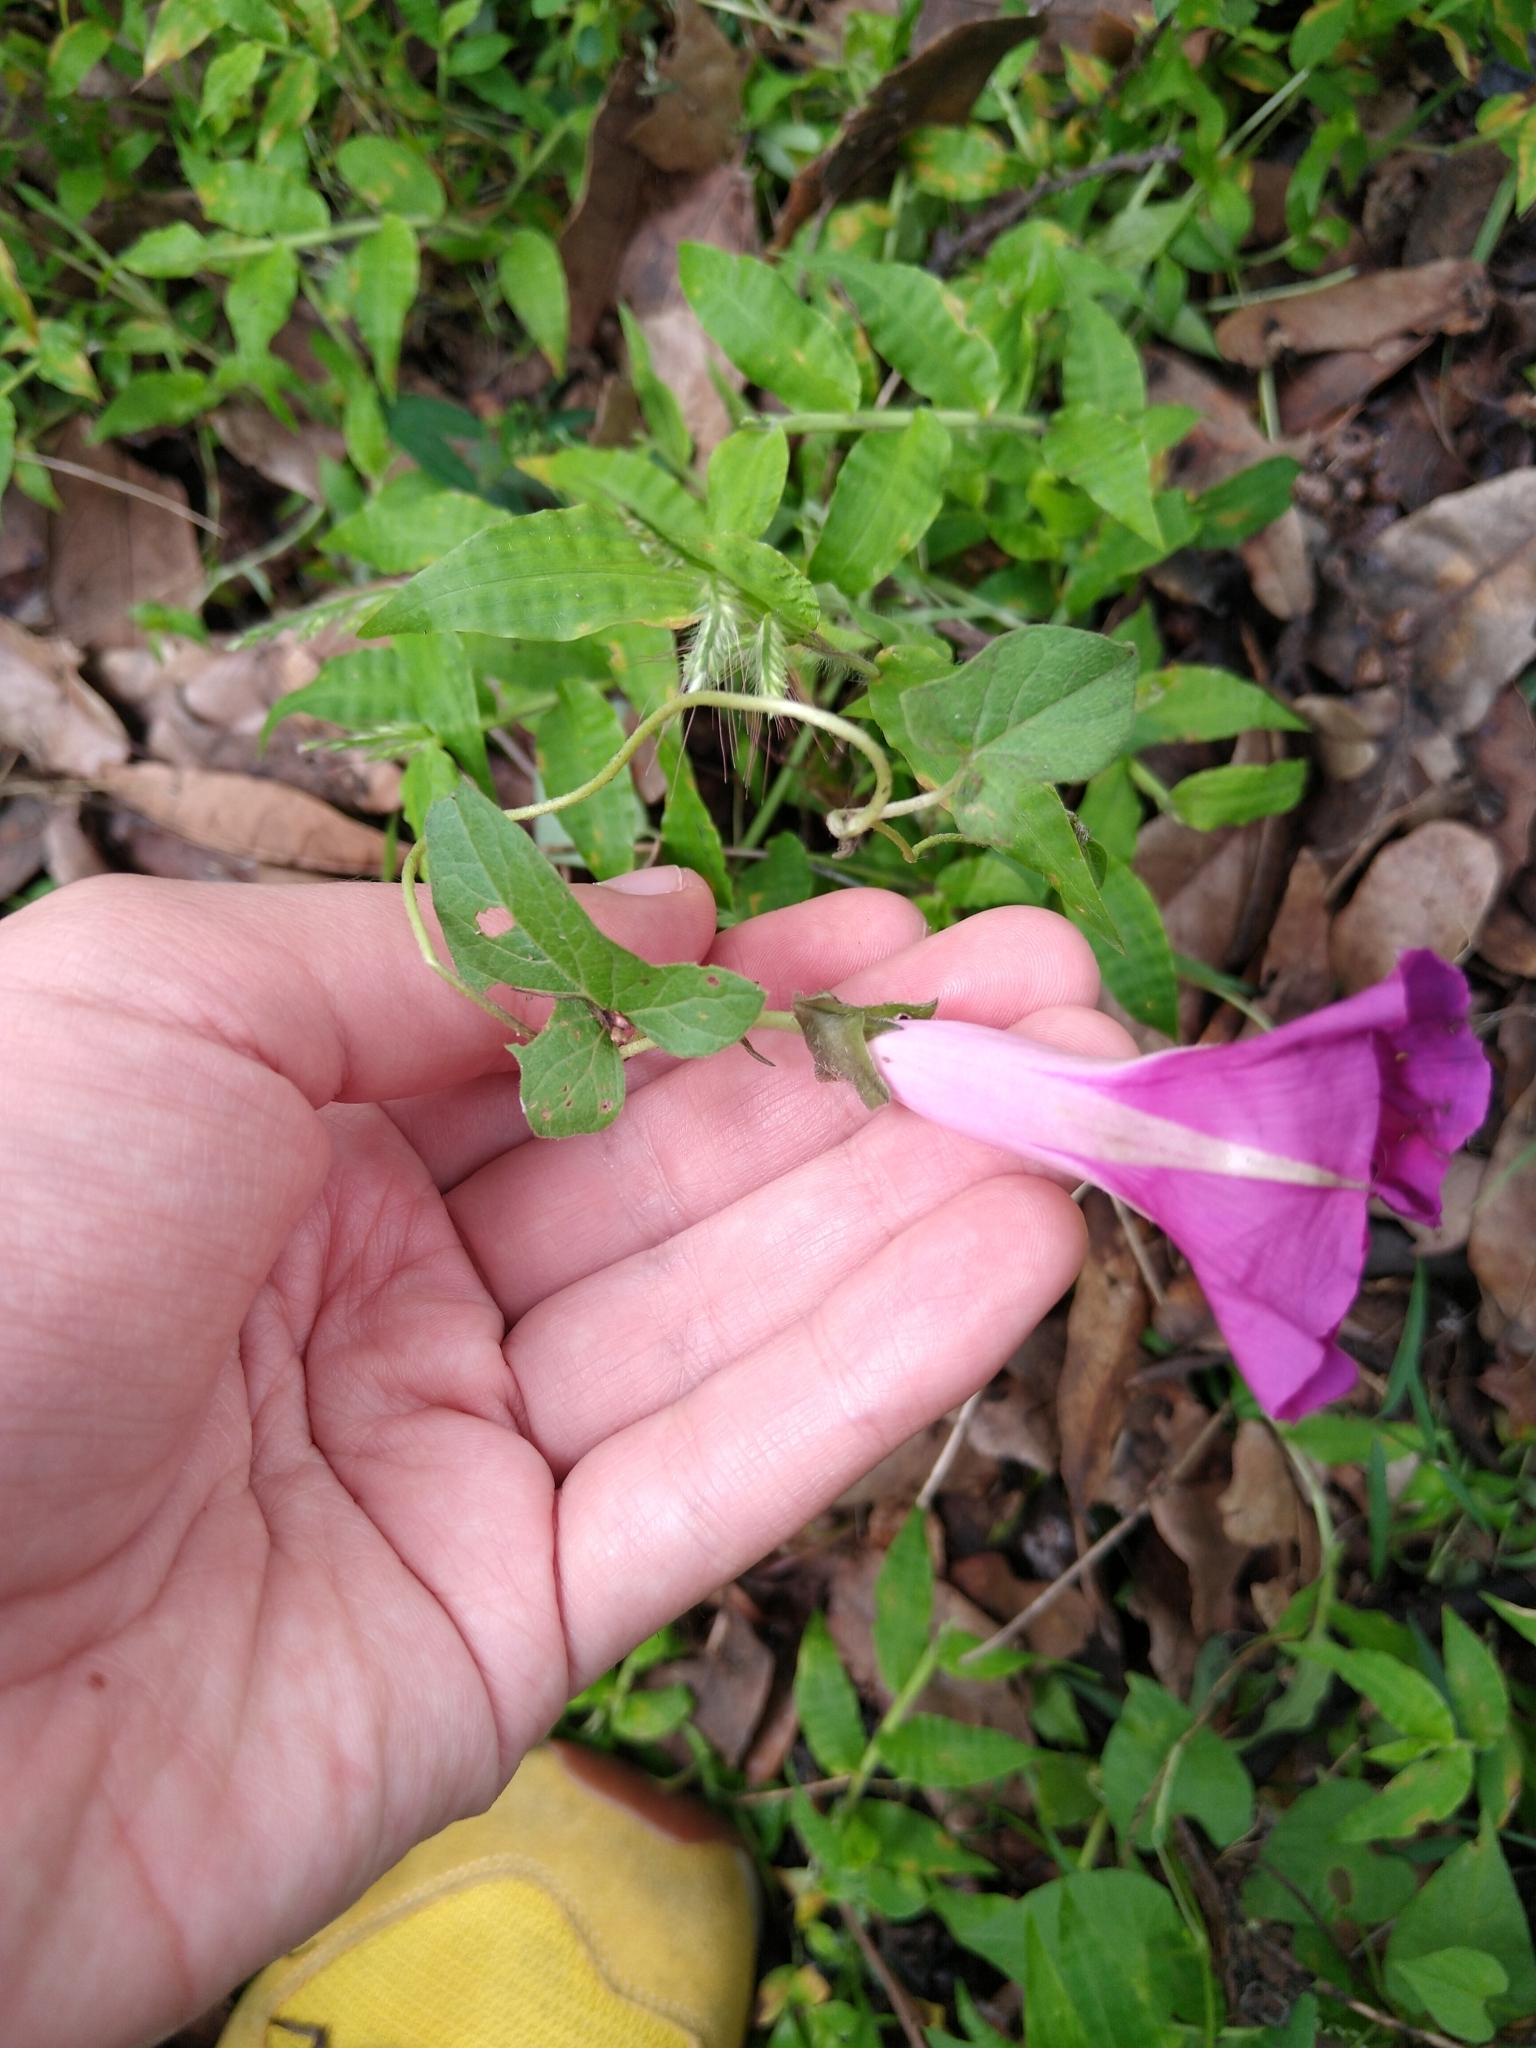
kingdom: Plantae
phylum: Tracheophyta
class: Magnoliopsida
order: Solanales
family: Convolvulaceae
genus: Ipomoea
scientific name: Ipomoea decasperma
